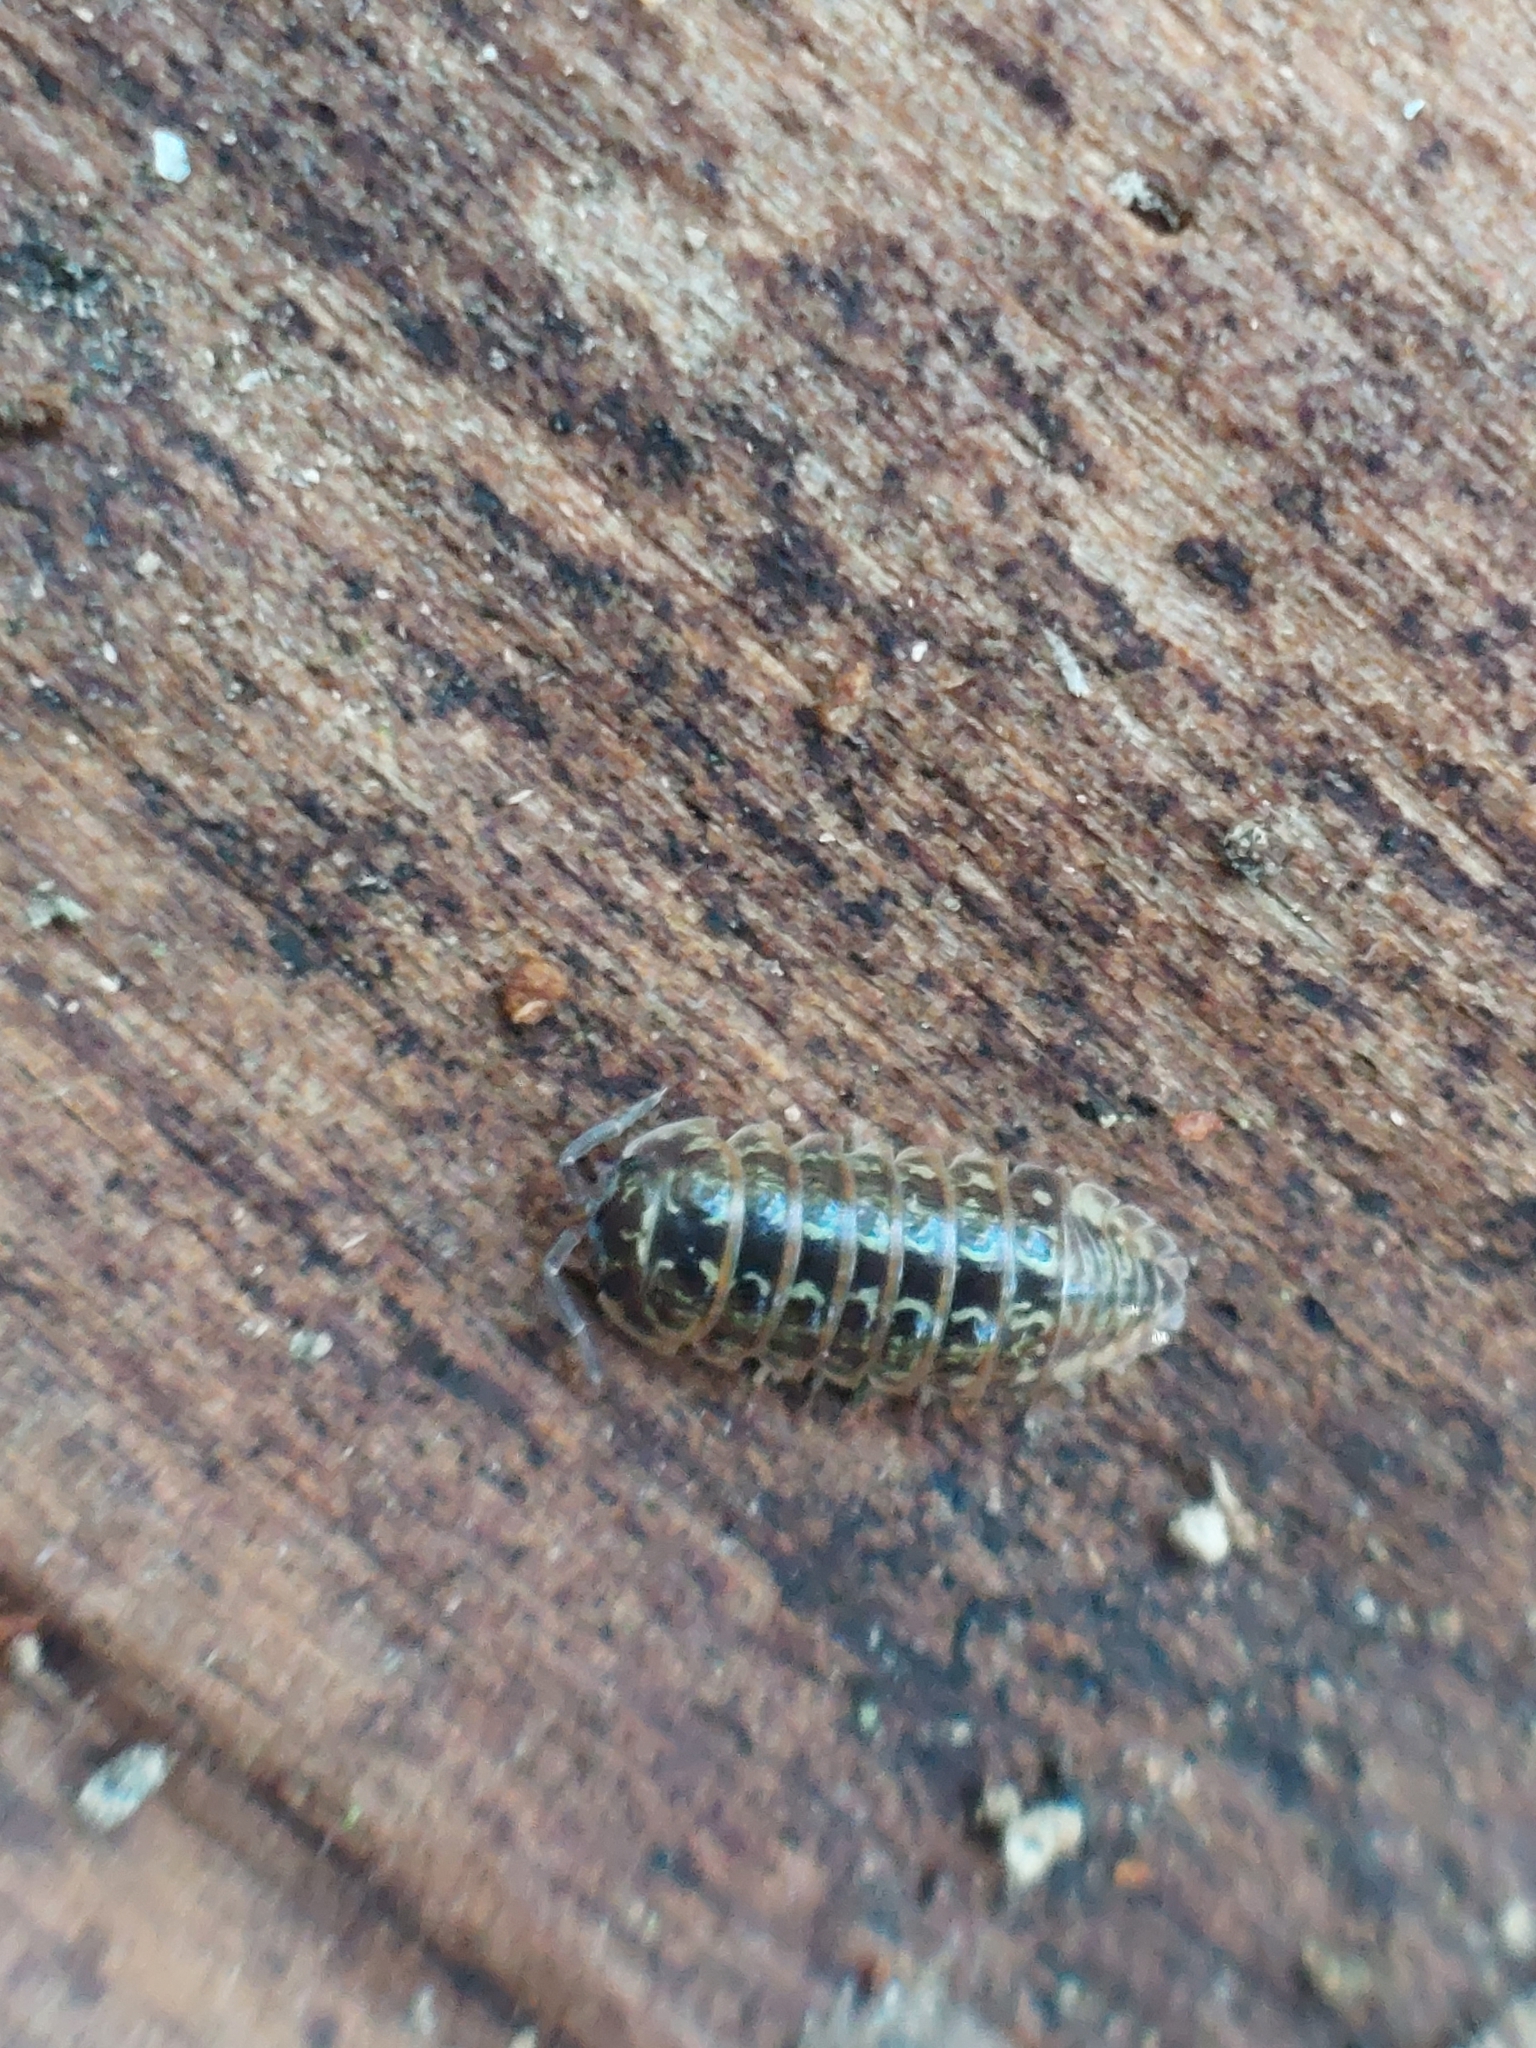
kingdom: Animalia
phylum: Arthropoda
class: Malacostraca
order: Isopoda
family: Armadillidiidae
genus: Armadillidium
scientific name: Armadillidium pictum
